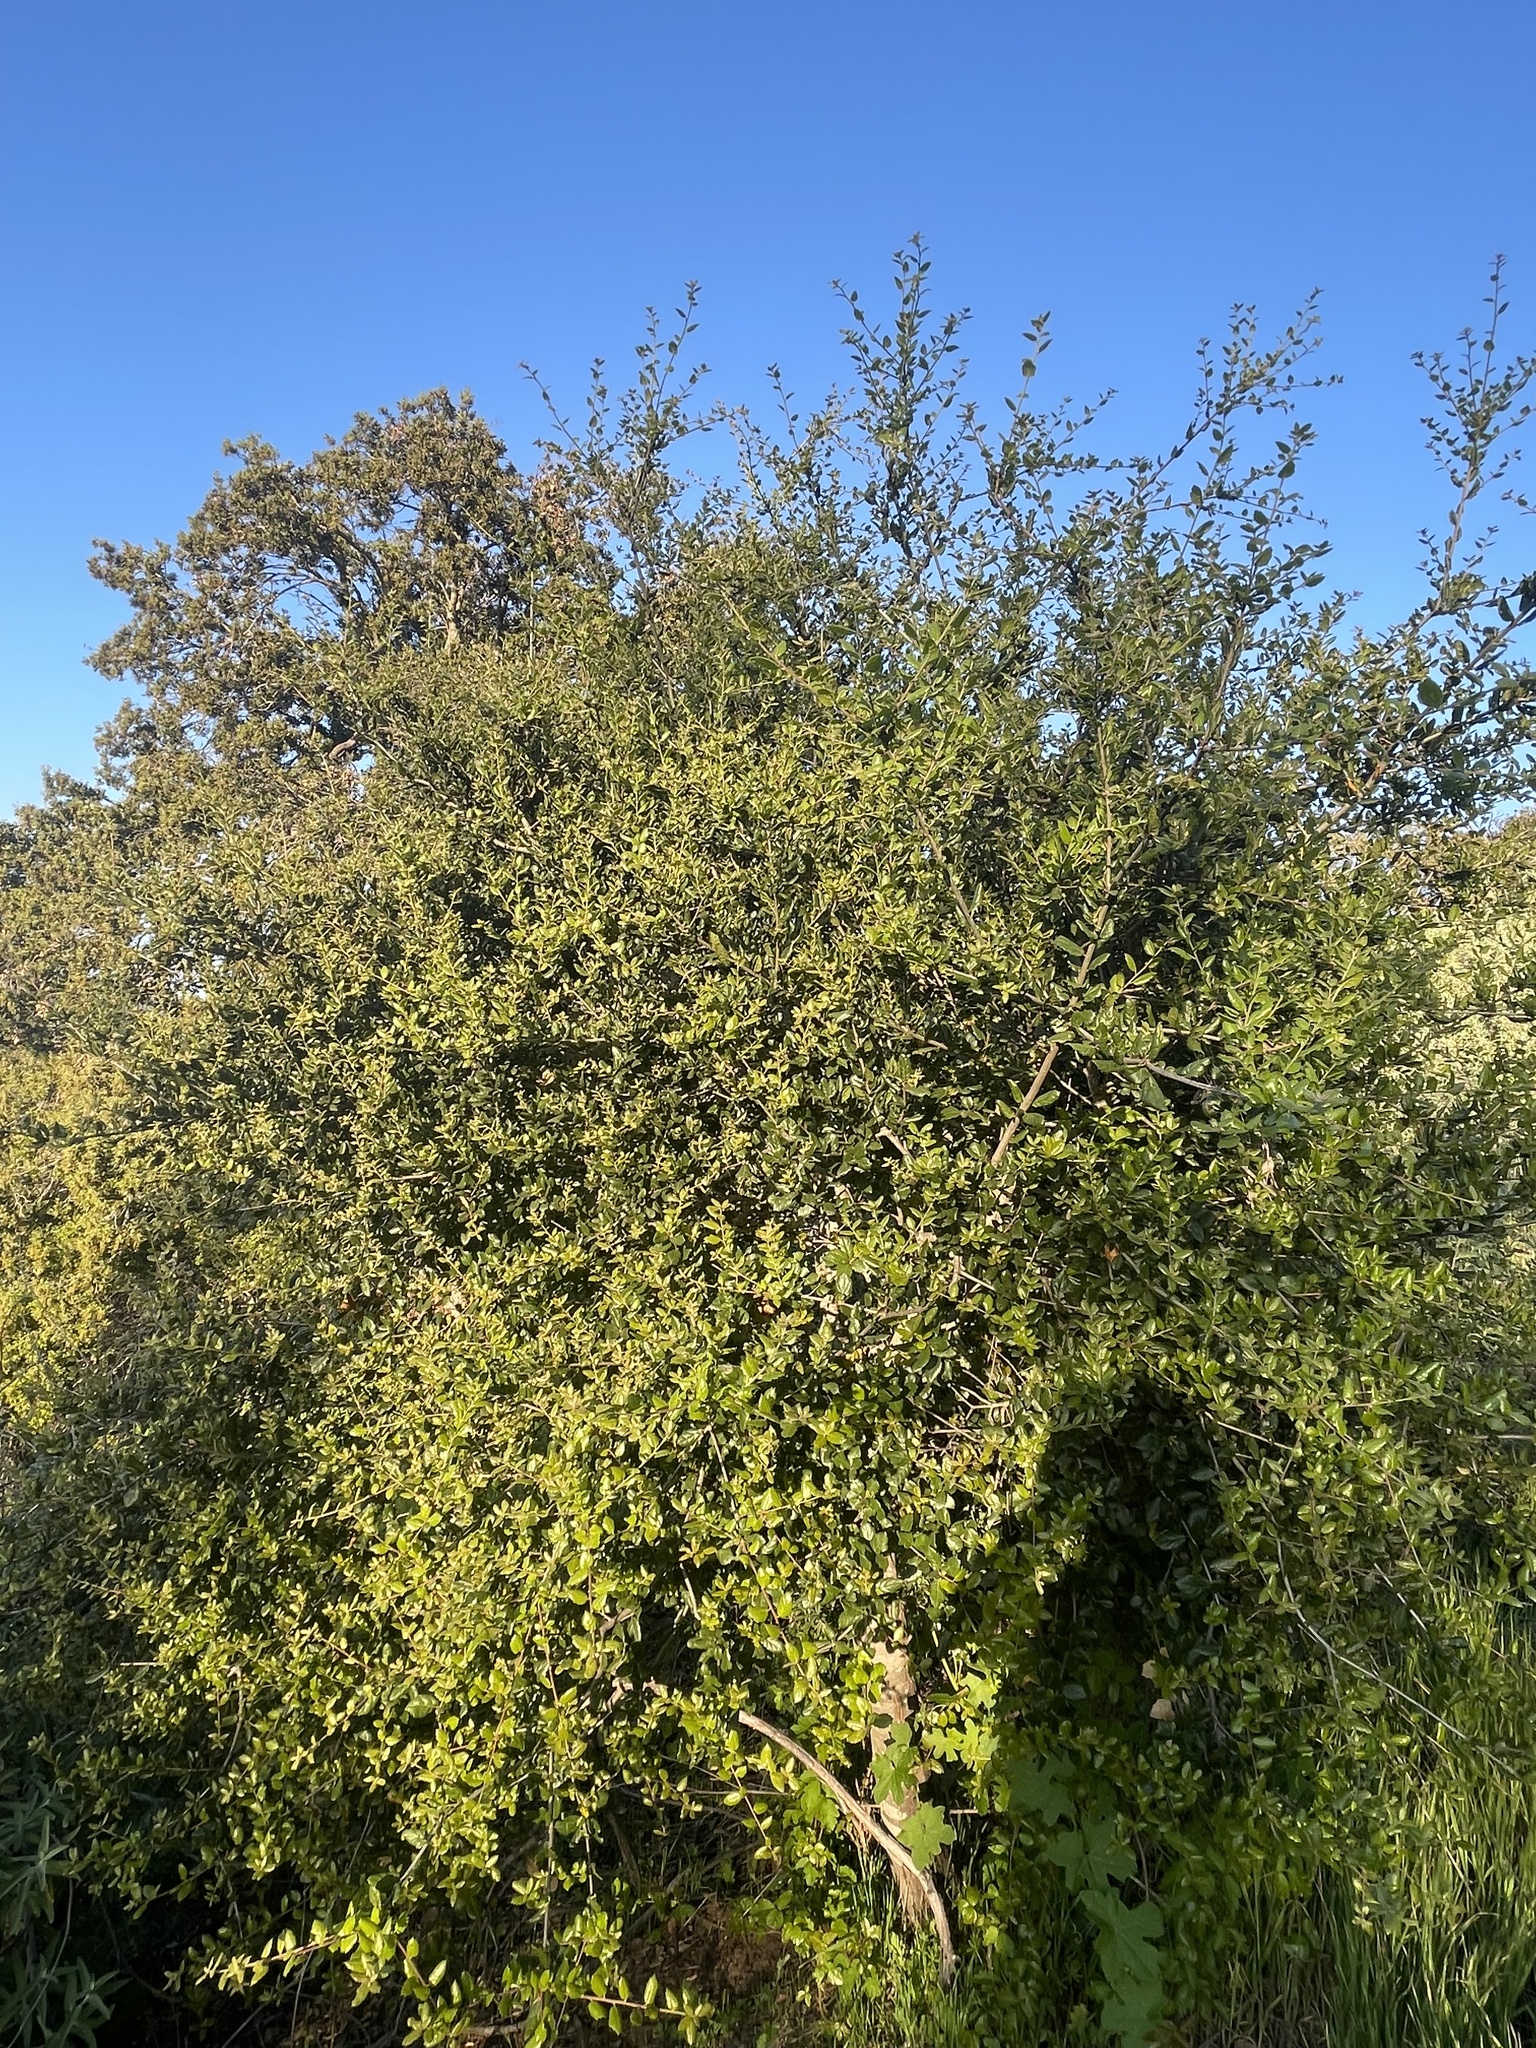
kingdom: Plantae
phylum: Tracheophyta
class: Magnoliopsida
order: Fagales
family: Fagaceae
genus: Quercus
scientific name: Quercus agrifolia
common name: California live oak
